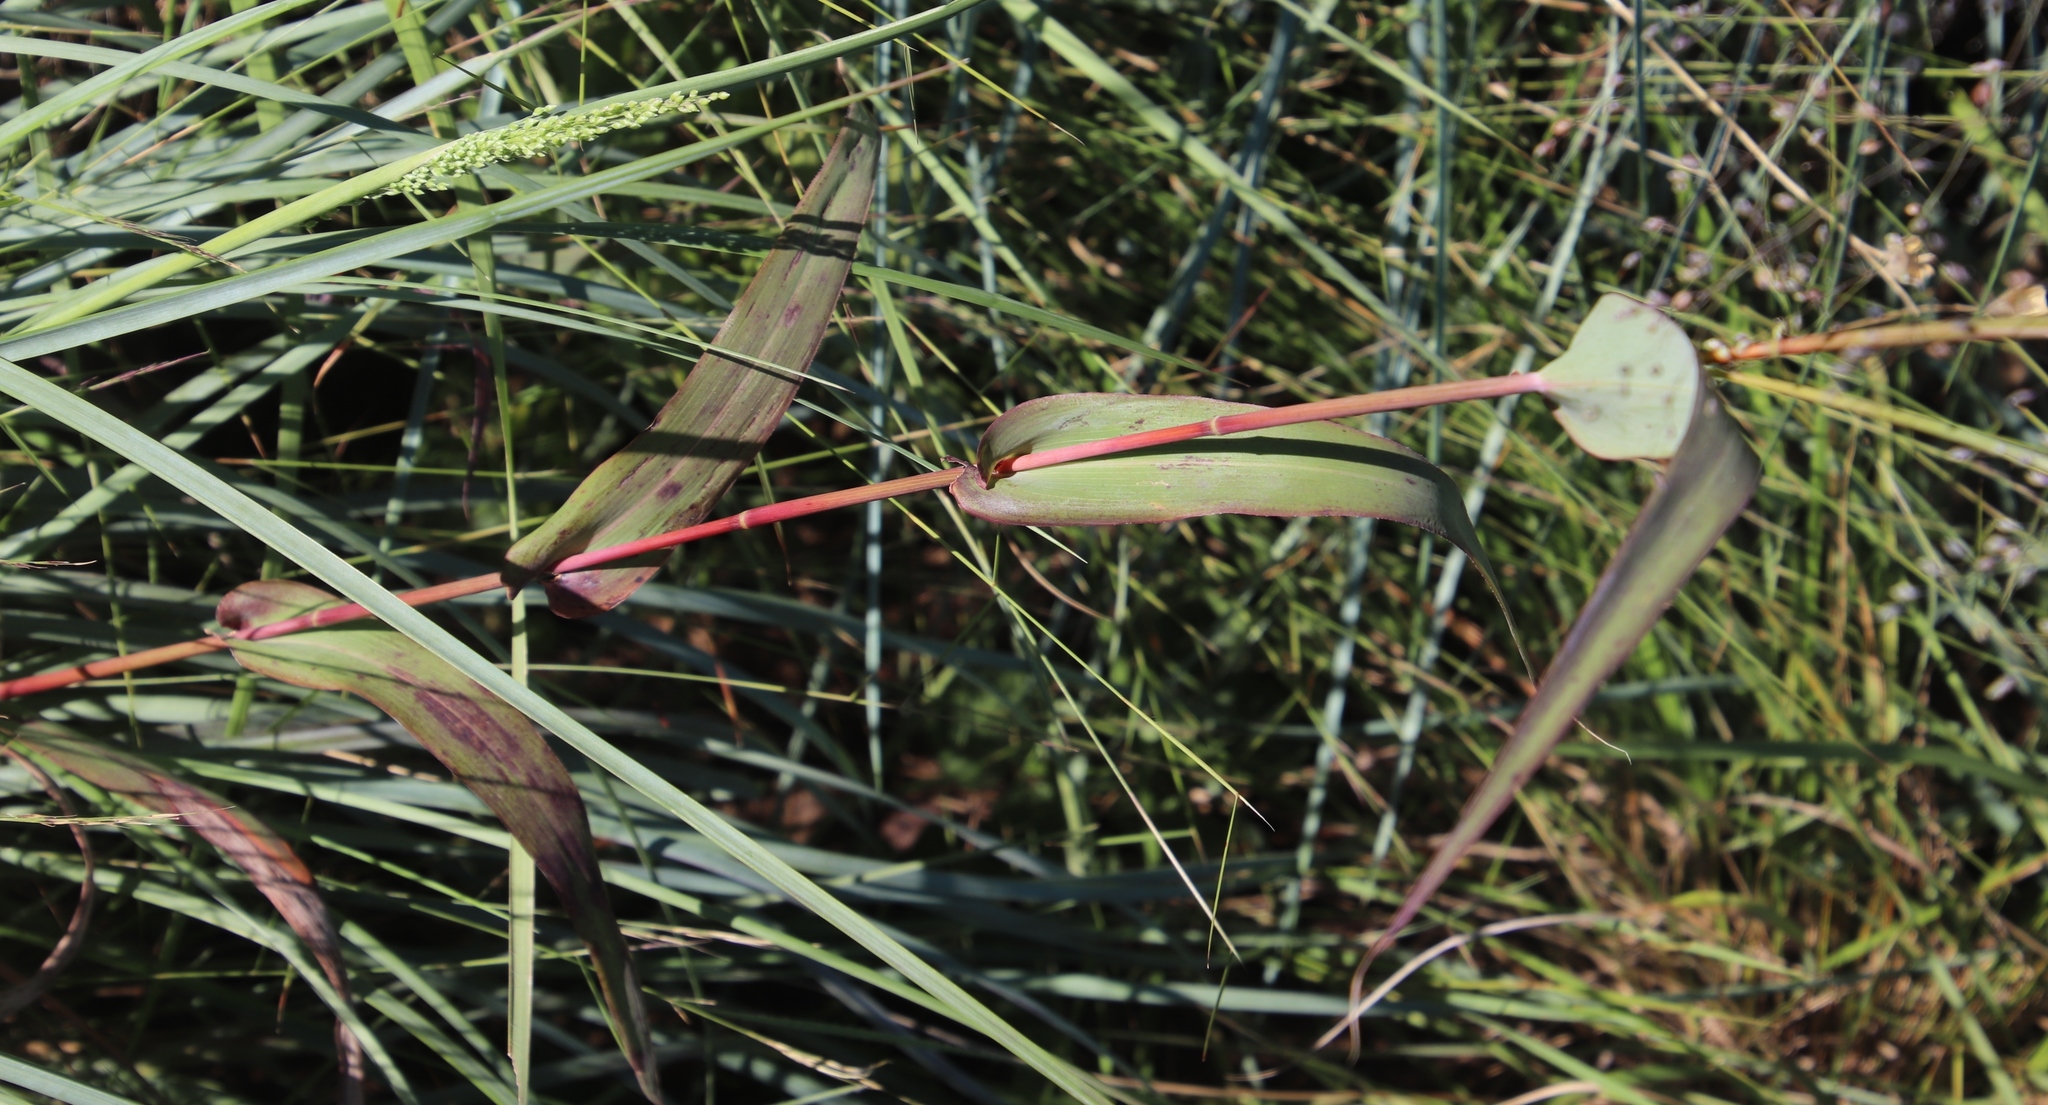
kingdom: Plantae
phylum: Tracheophyta
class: Liliopsida
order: Poales
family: Poaceae
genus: Diheteropogon
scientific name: Diheteropogon amplectens
